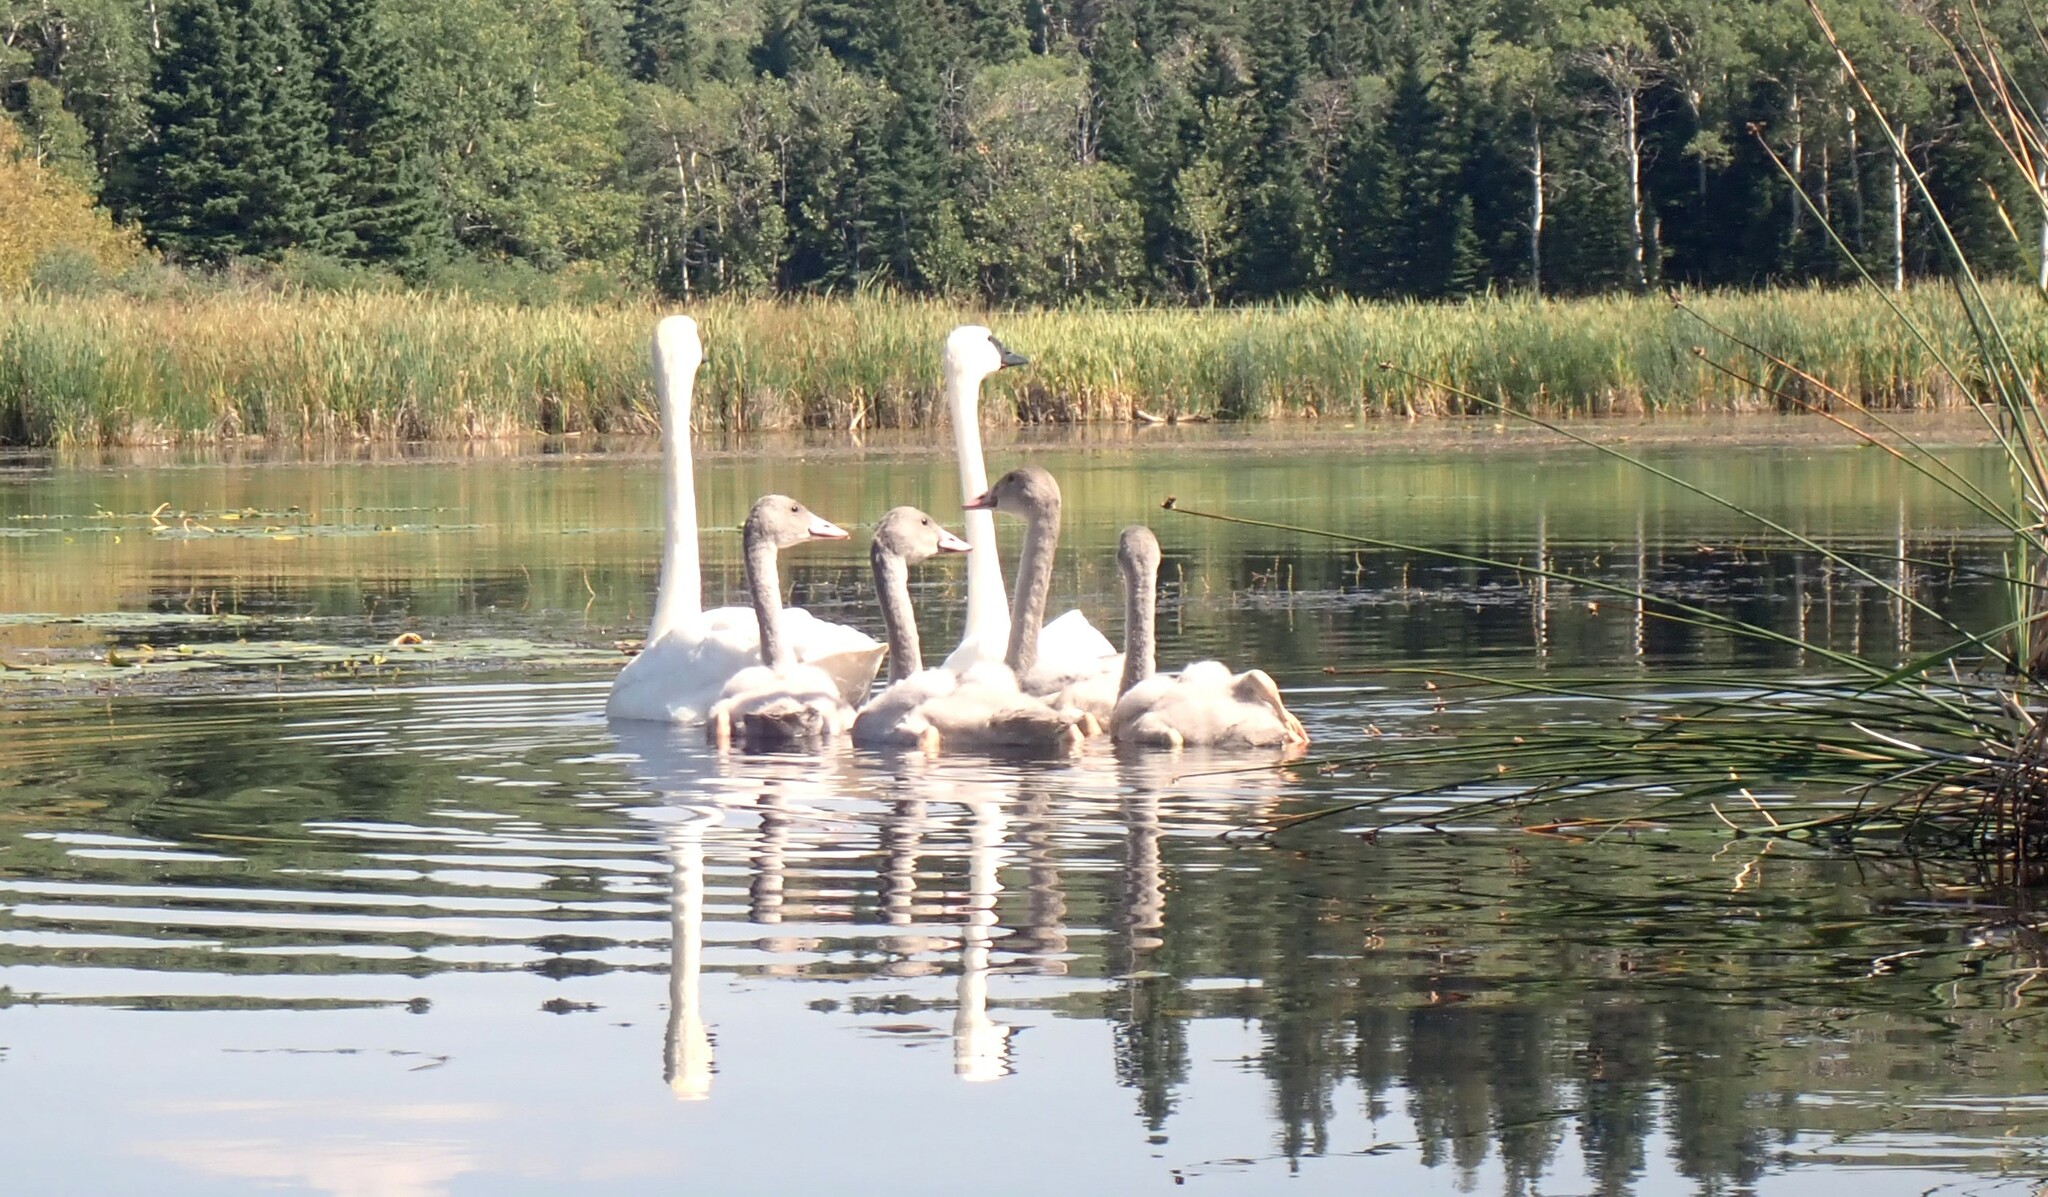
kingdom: Animalia
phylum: Chordata
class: Aves
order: Anseriformes
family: Anatidae
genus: Cygnus
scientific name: Cygnus buccinator
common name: Trumpeter swan
